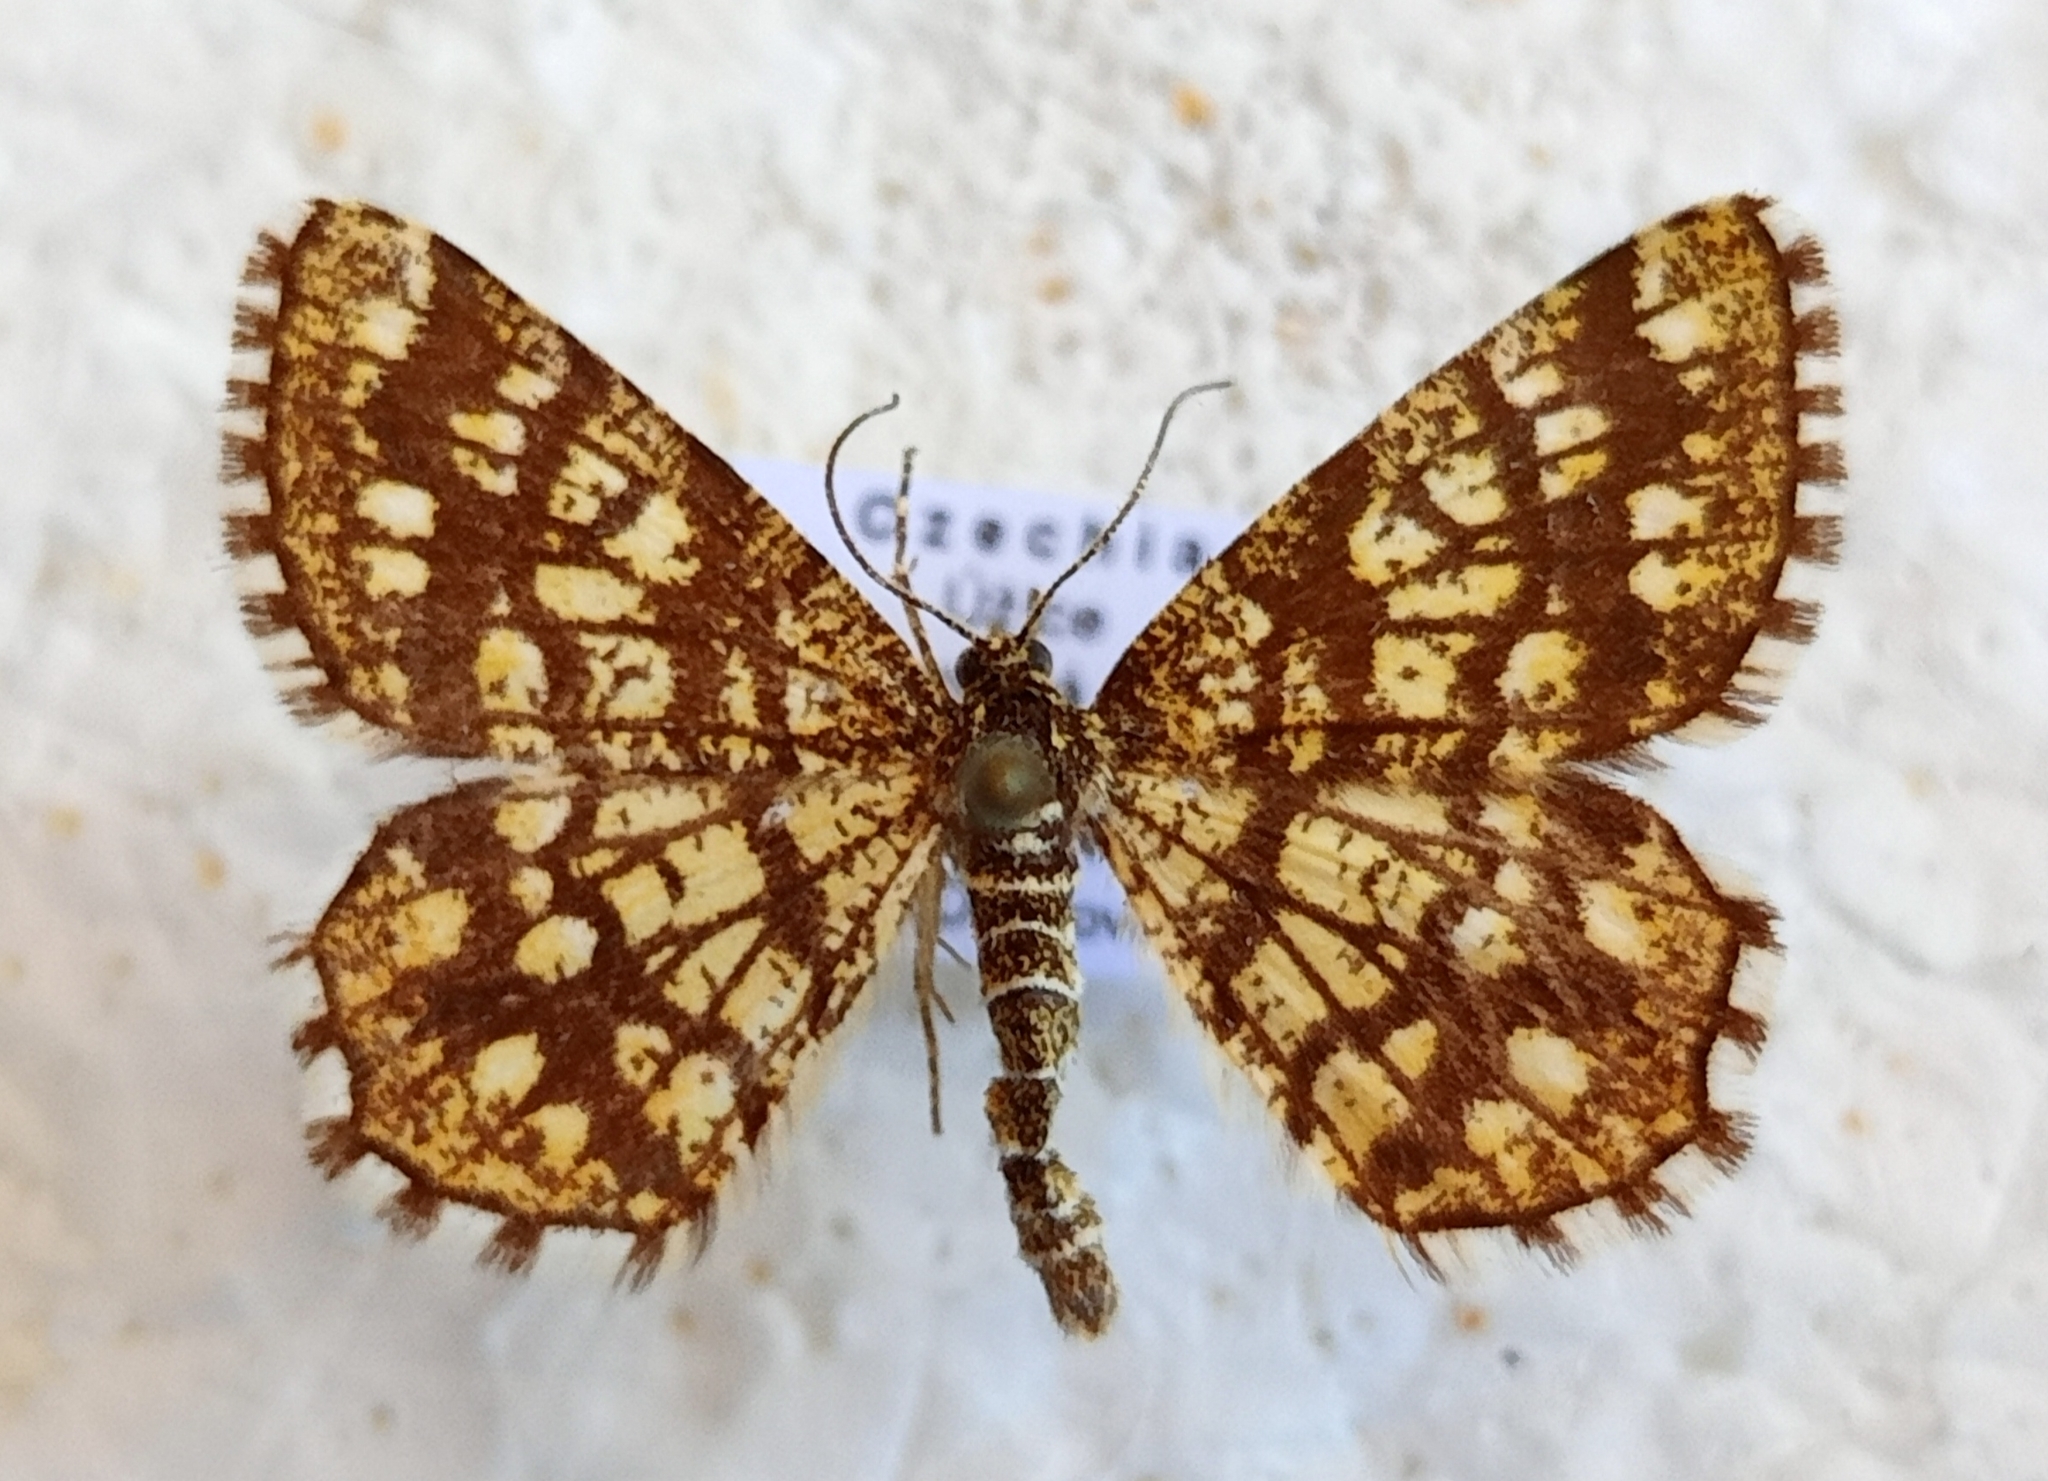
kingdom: Animalia
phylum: Arthropoda
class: Insecta
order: Lepidoptera
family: Geometridae
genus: Chiasmia
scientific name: Chiasmia clathrata
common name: Latticed heath
